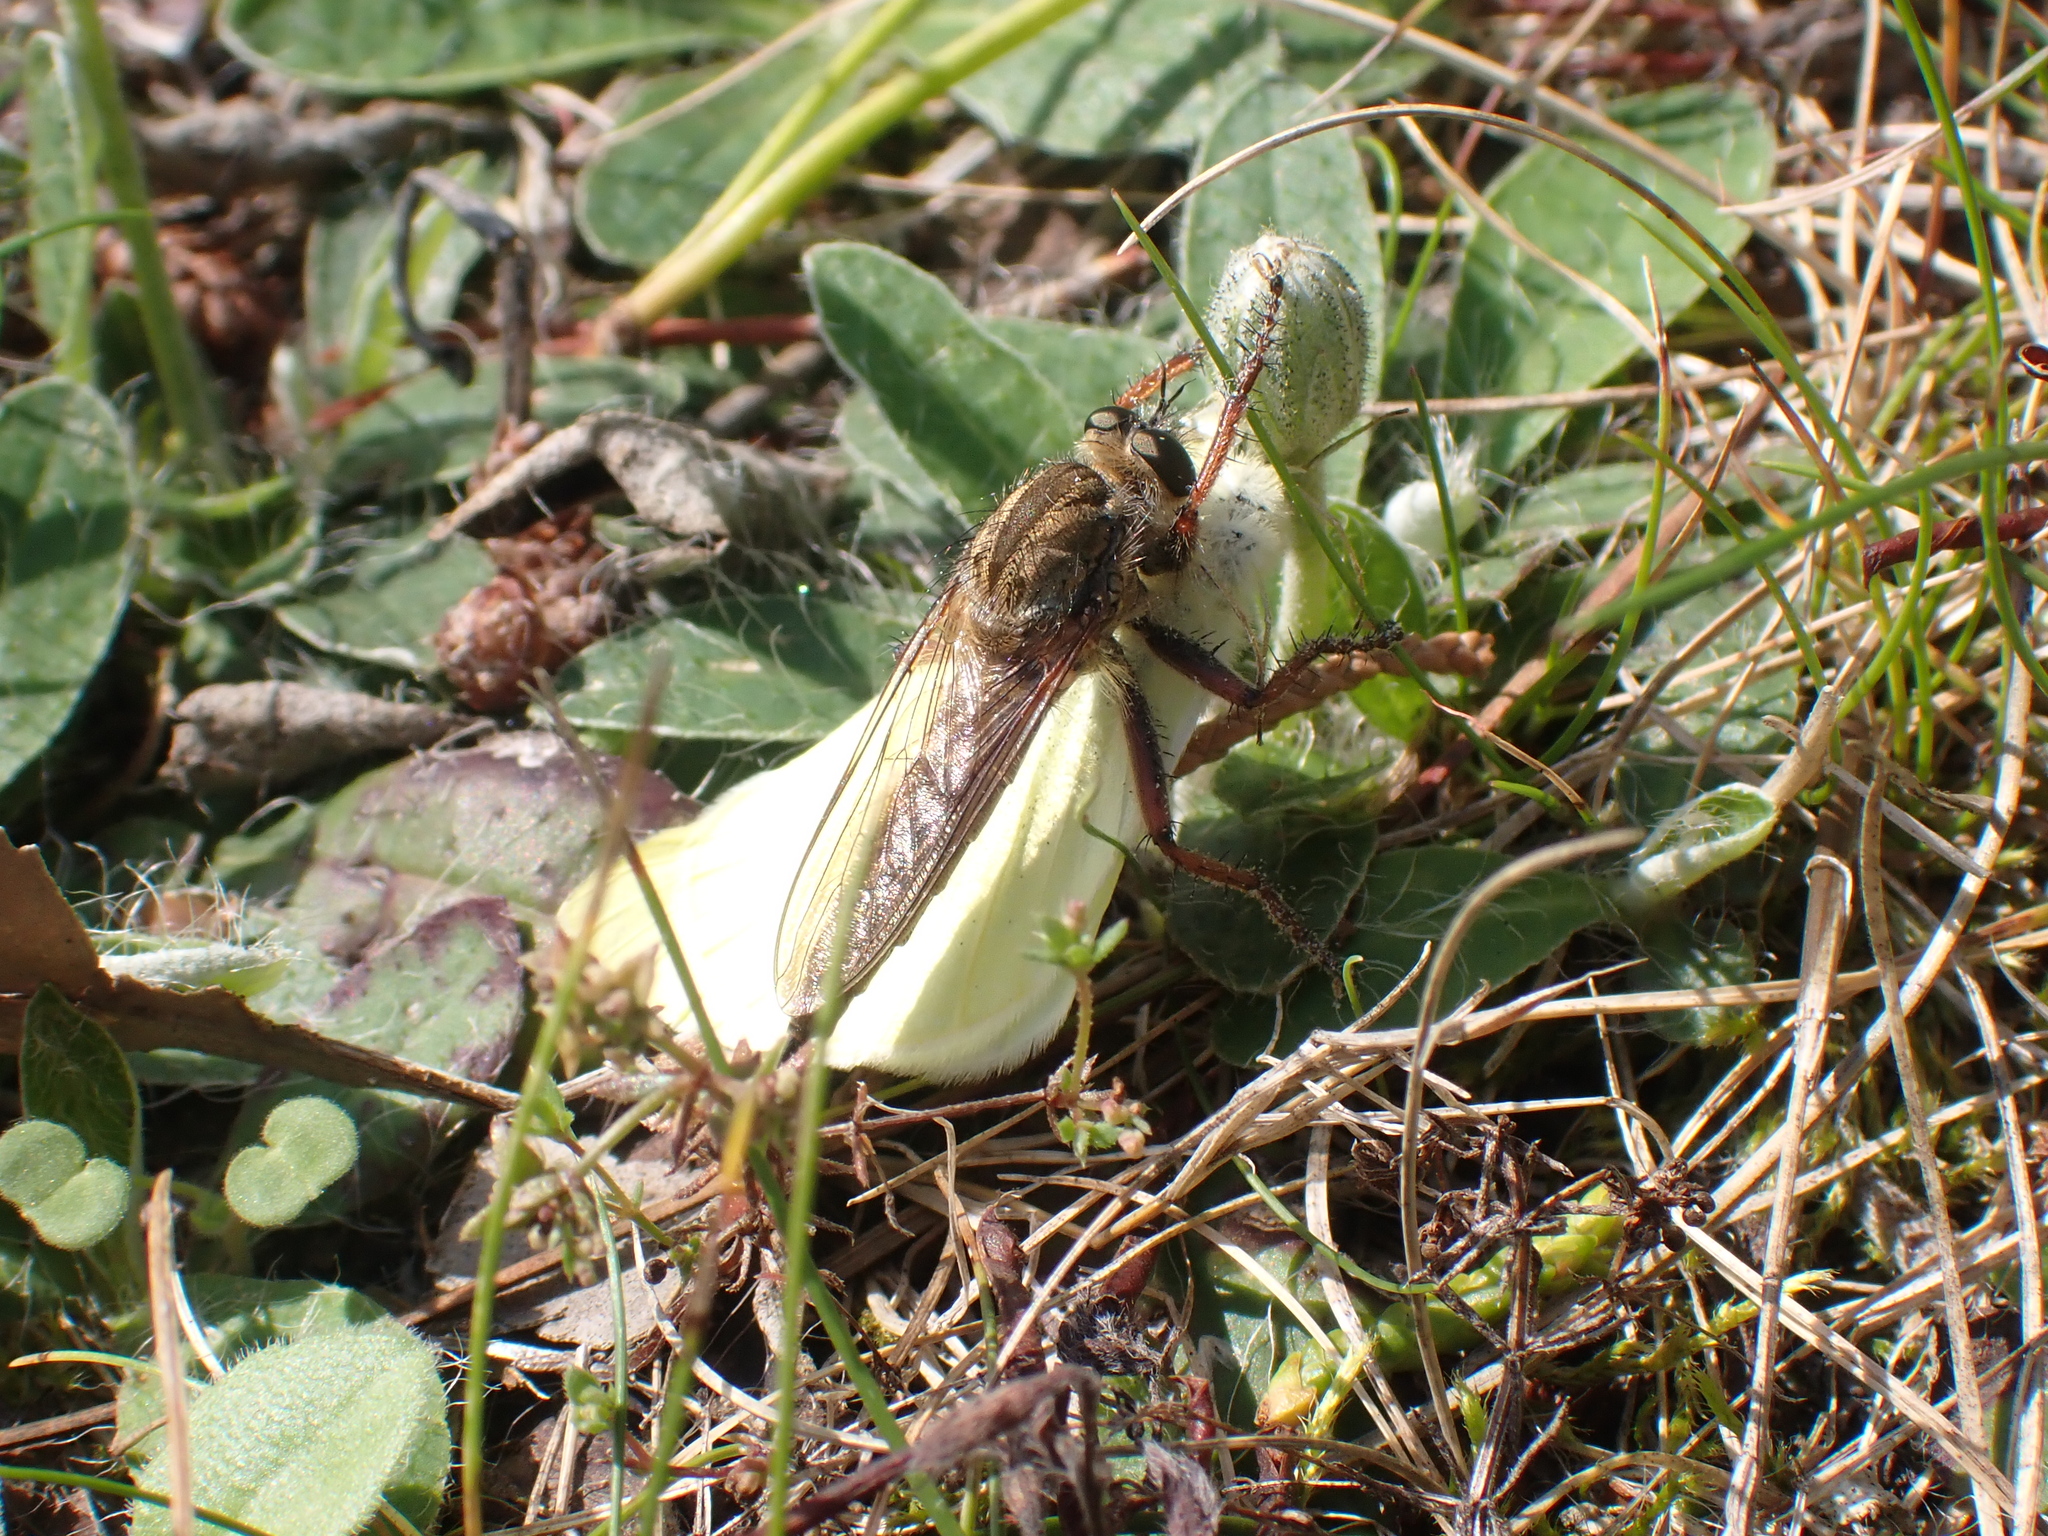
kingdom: Animalia
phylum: Arthropoda
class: Insecta
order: Lepidoptera
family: Pieridae
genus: Pieris
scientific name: Pieris
